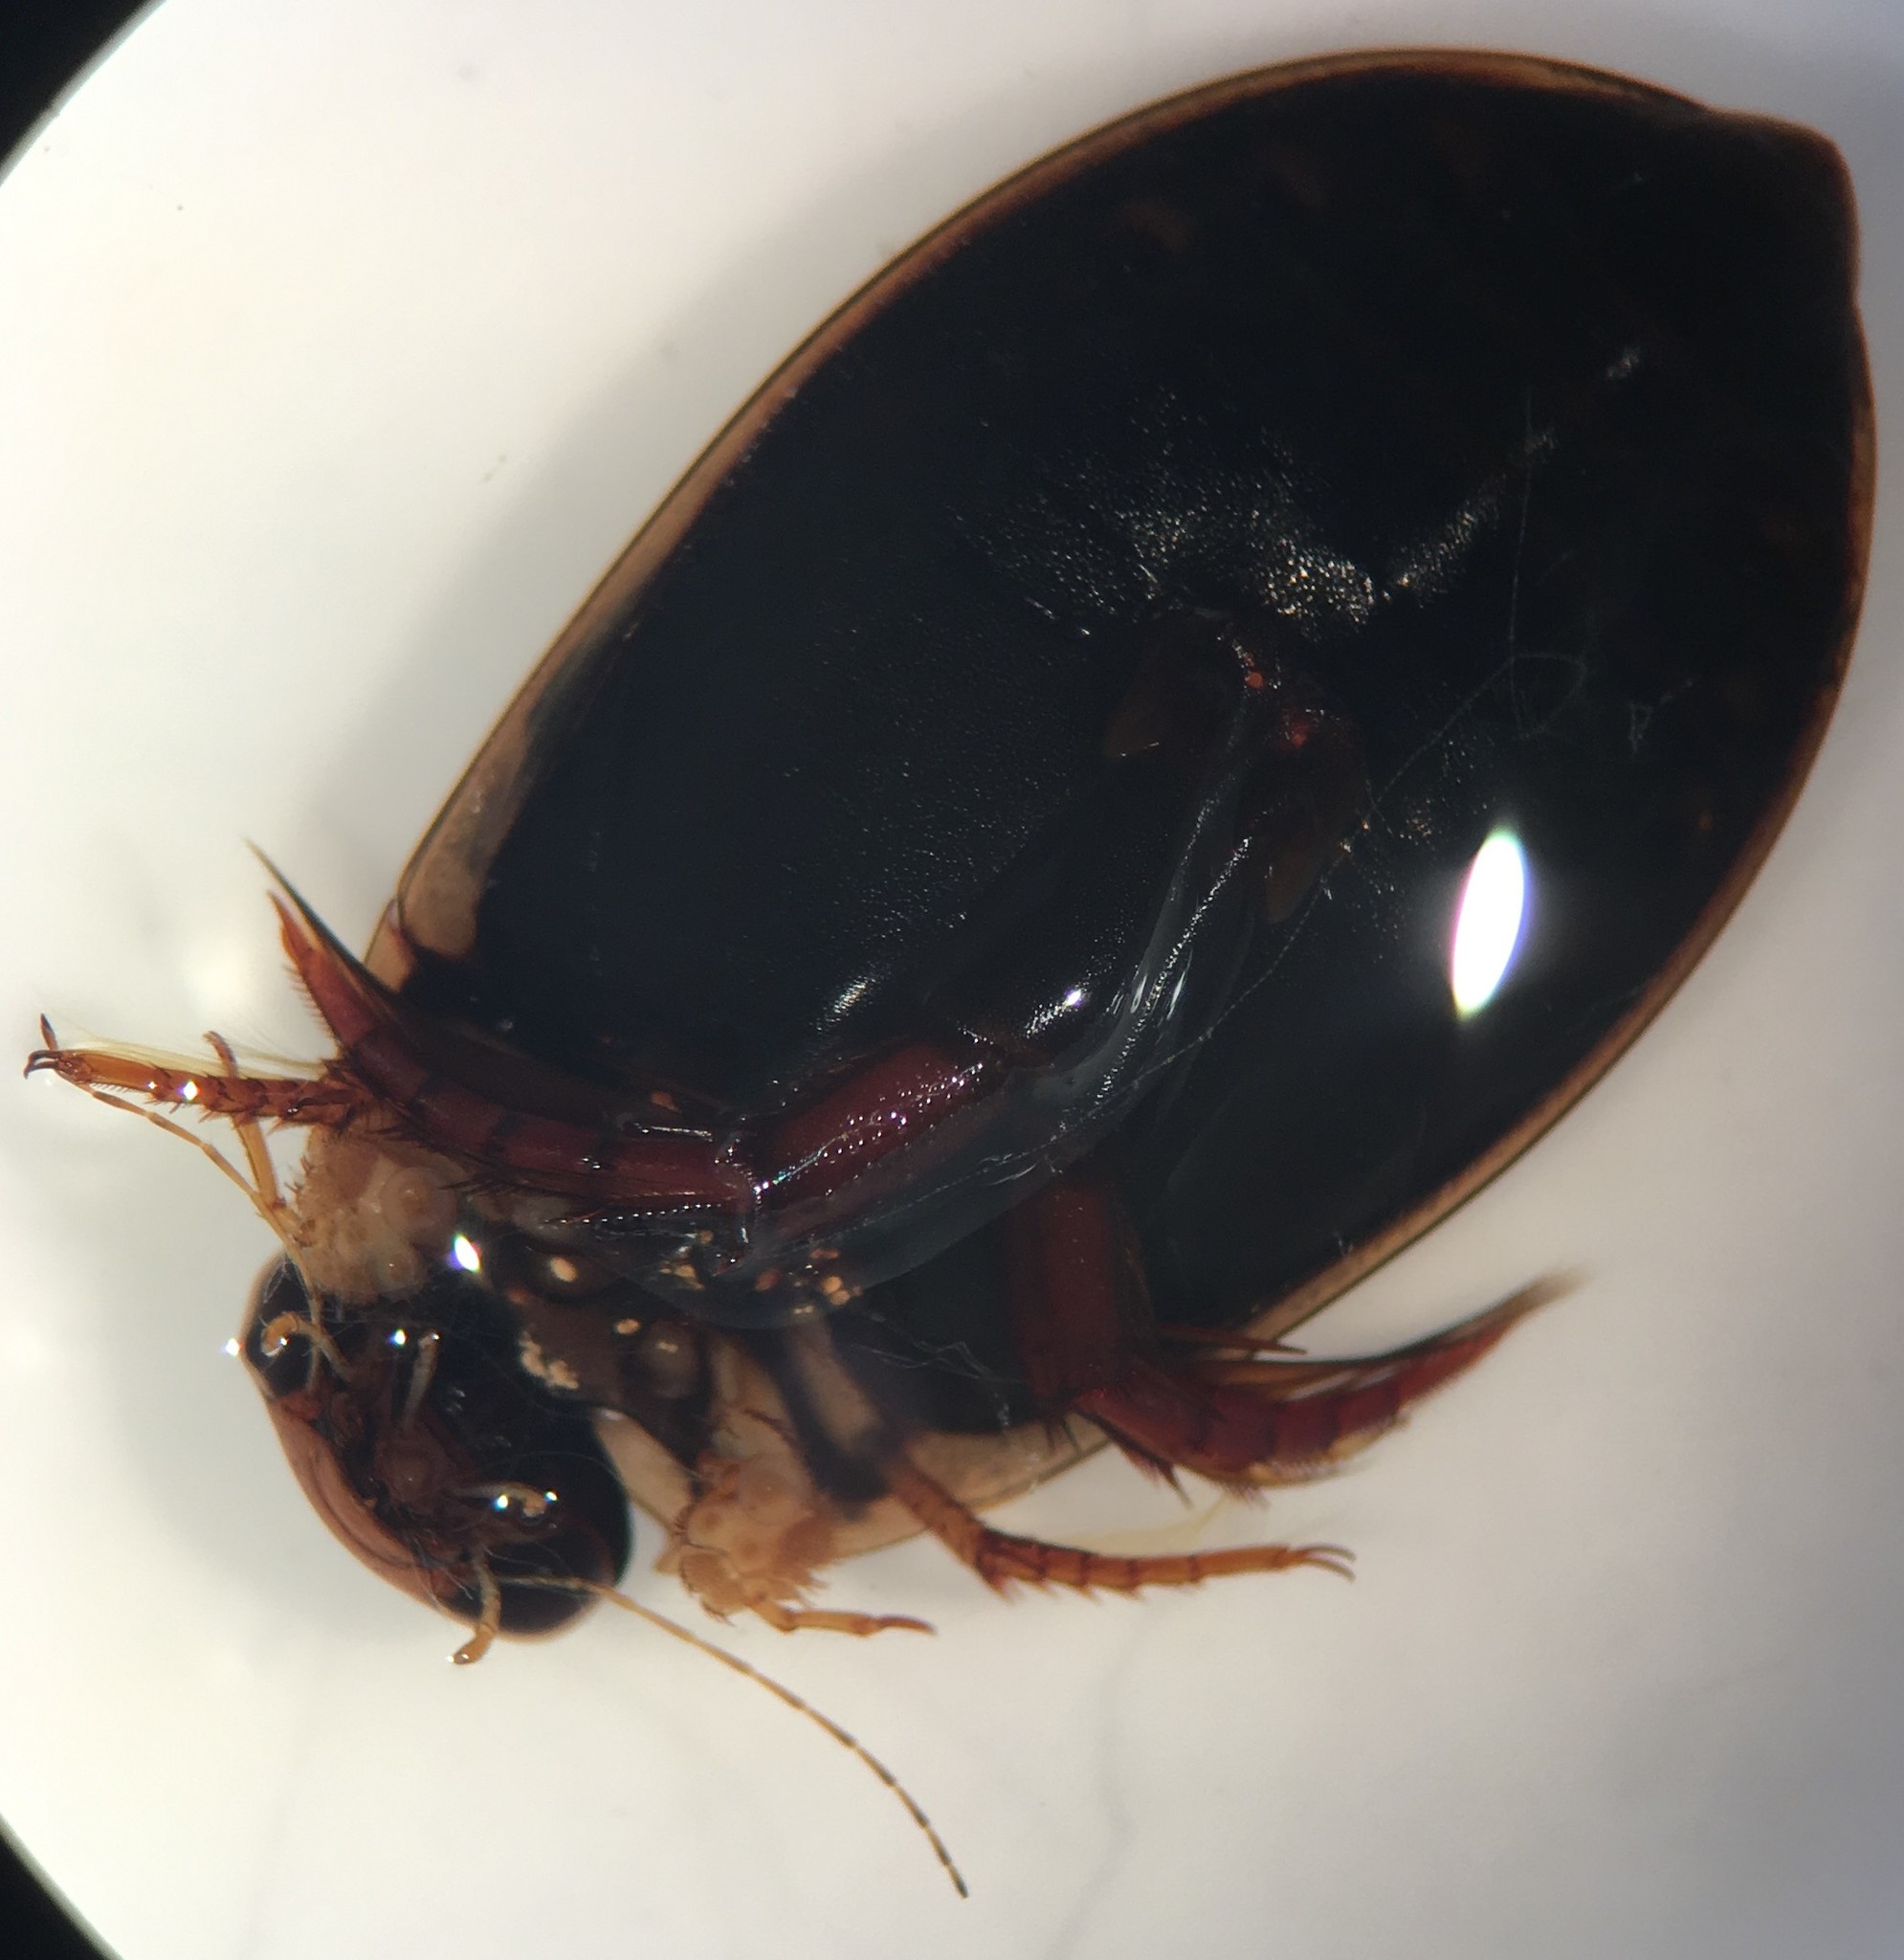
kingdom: Animalia
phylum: Arthropoda
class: Insecta
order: Coleoptera
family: Dytiscidae
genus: Acilius
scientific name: Acilius fraternus
